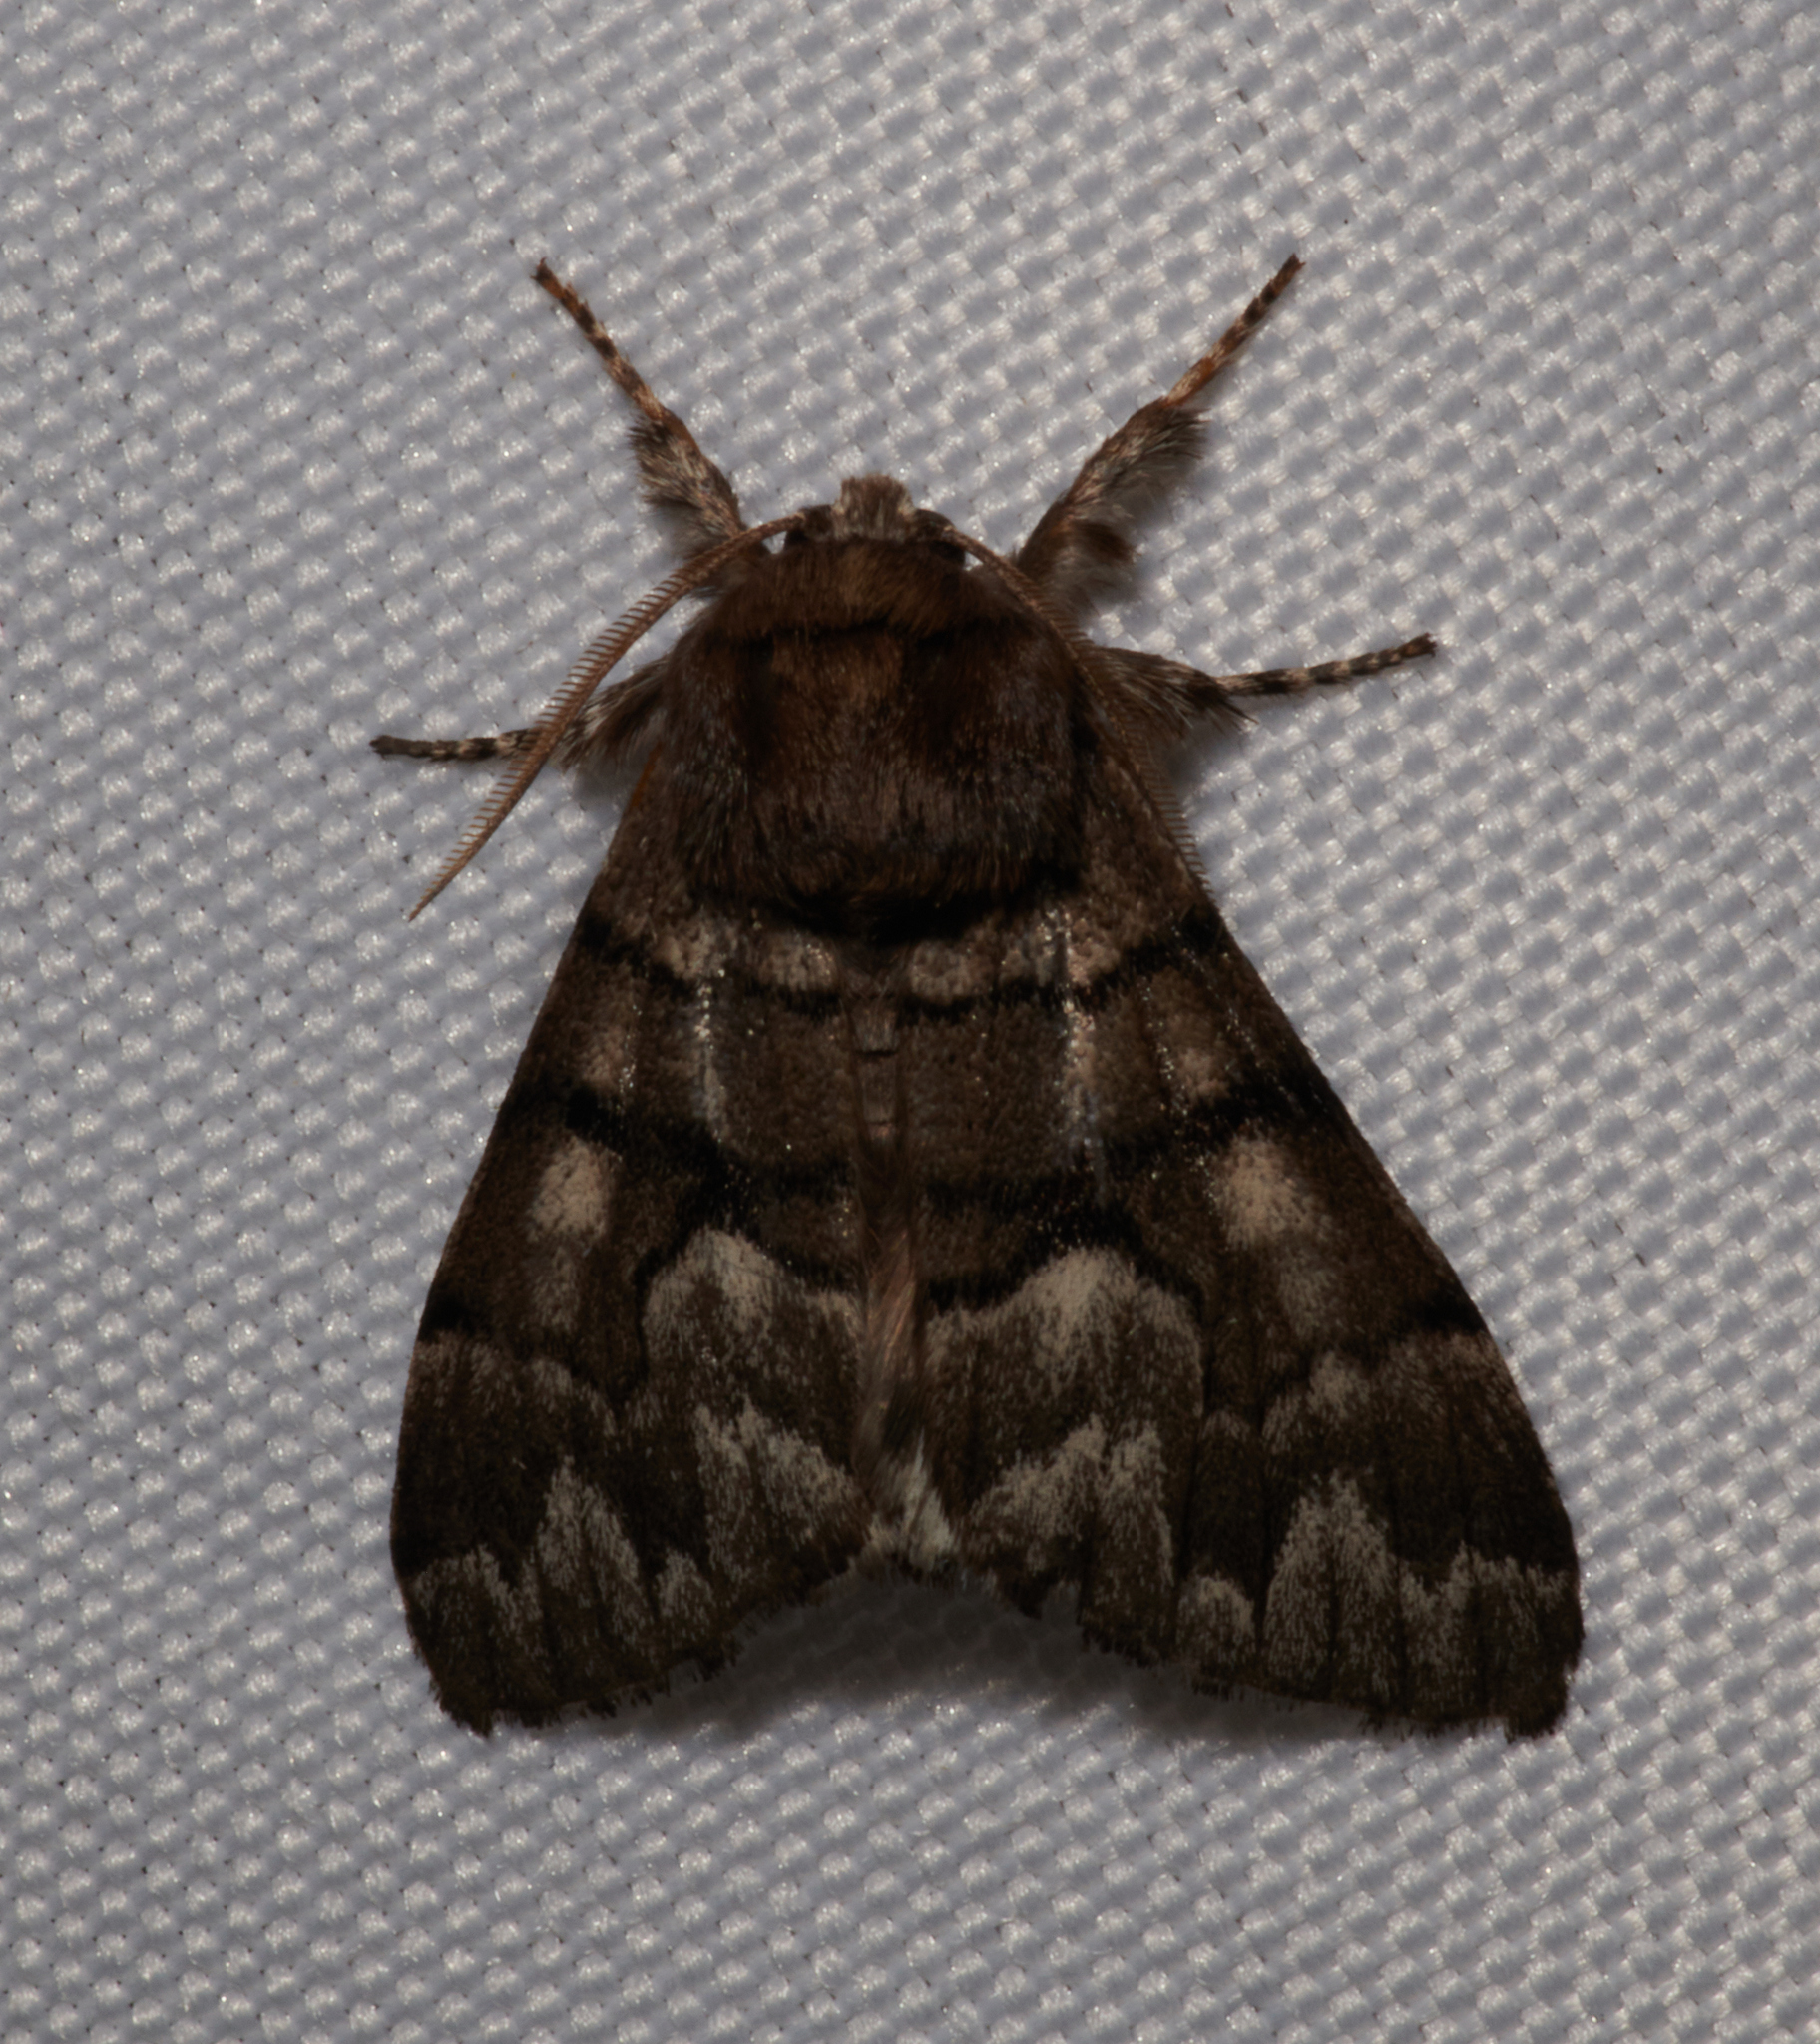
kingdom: Animalia
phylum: Arthropoda
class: Insecta
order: Lepidoptera
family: Noctuidae
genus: Panthea
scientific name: Panthea furcilla
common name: Eastern panthea moth
